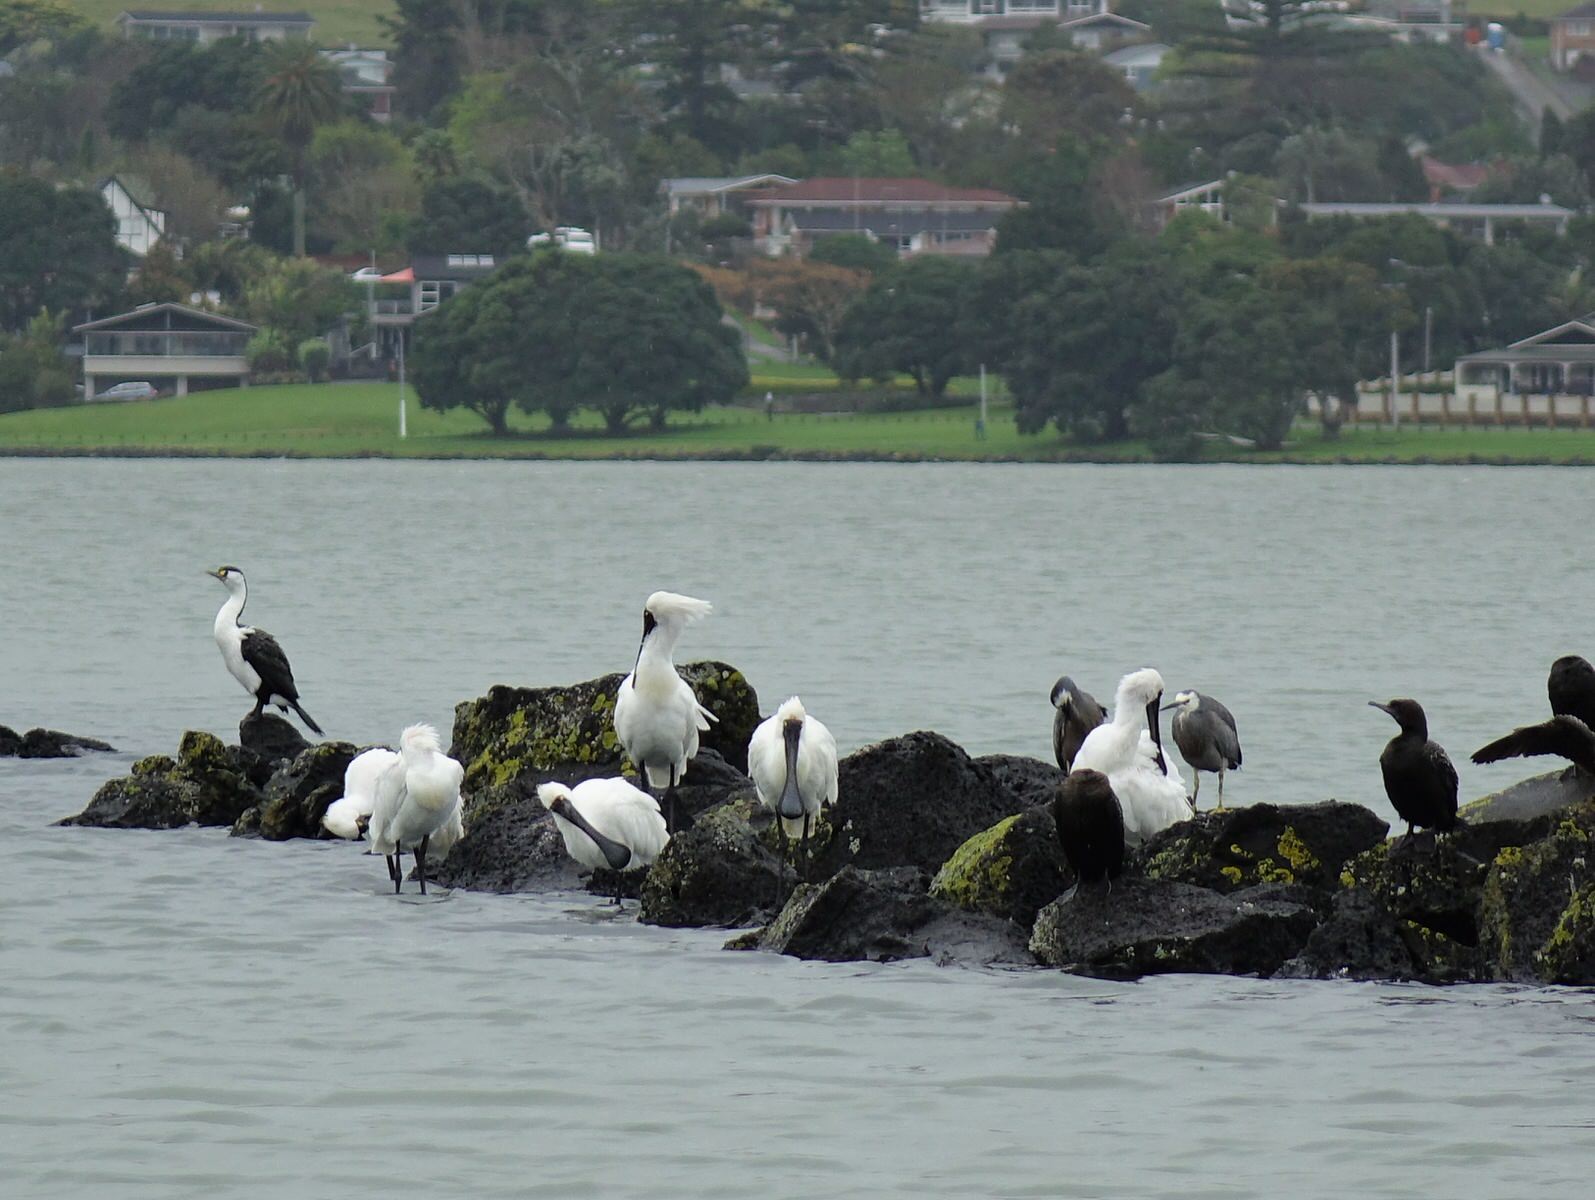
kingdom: Animalia
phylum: Chordata
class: Aves
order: Pelecaniformes
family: Threskiornithidae
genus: Platalea
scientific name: Platalea regia
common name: Royal spoonbill
